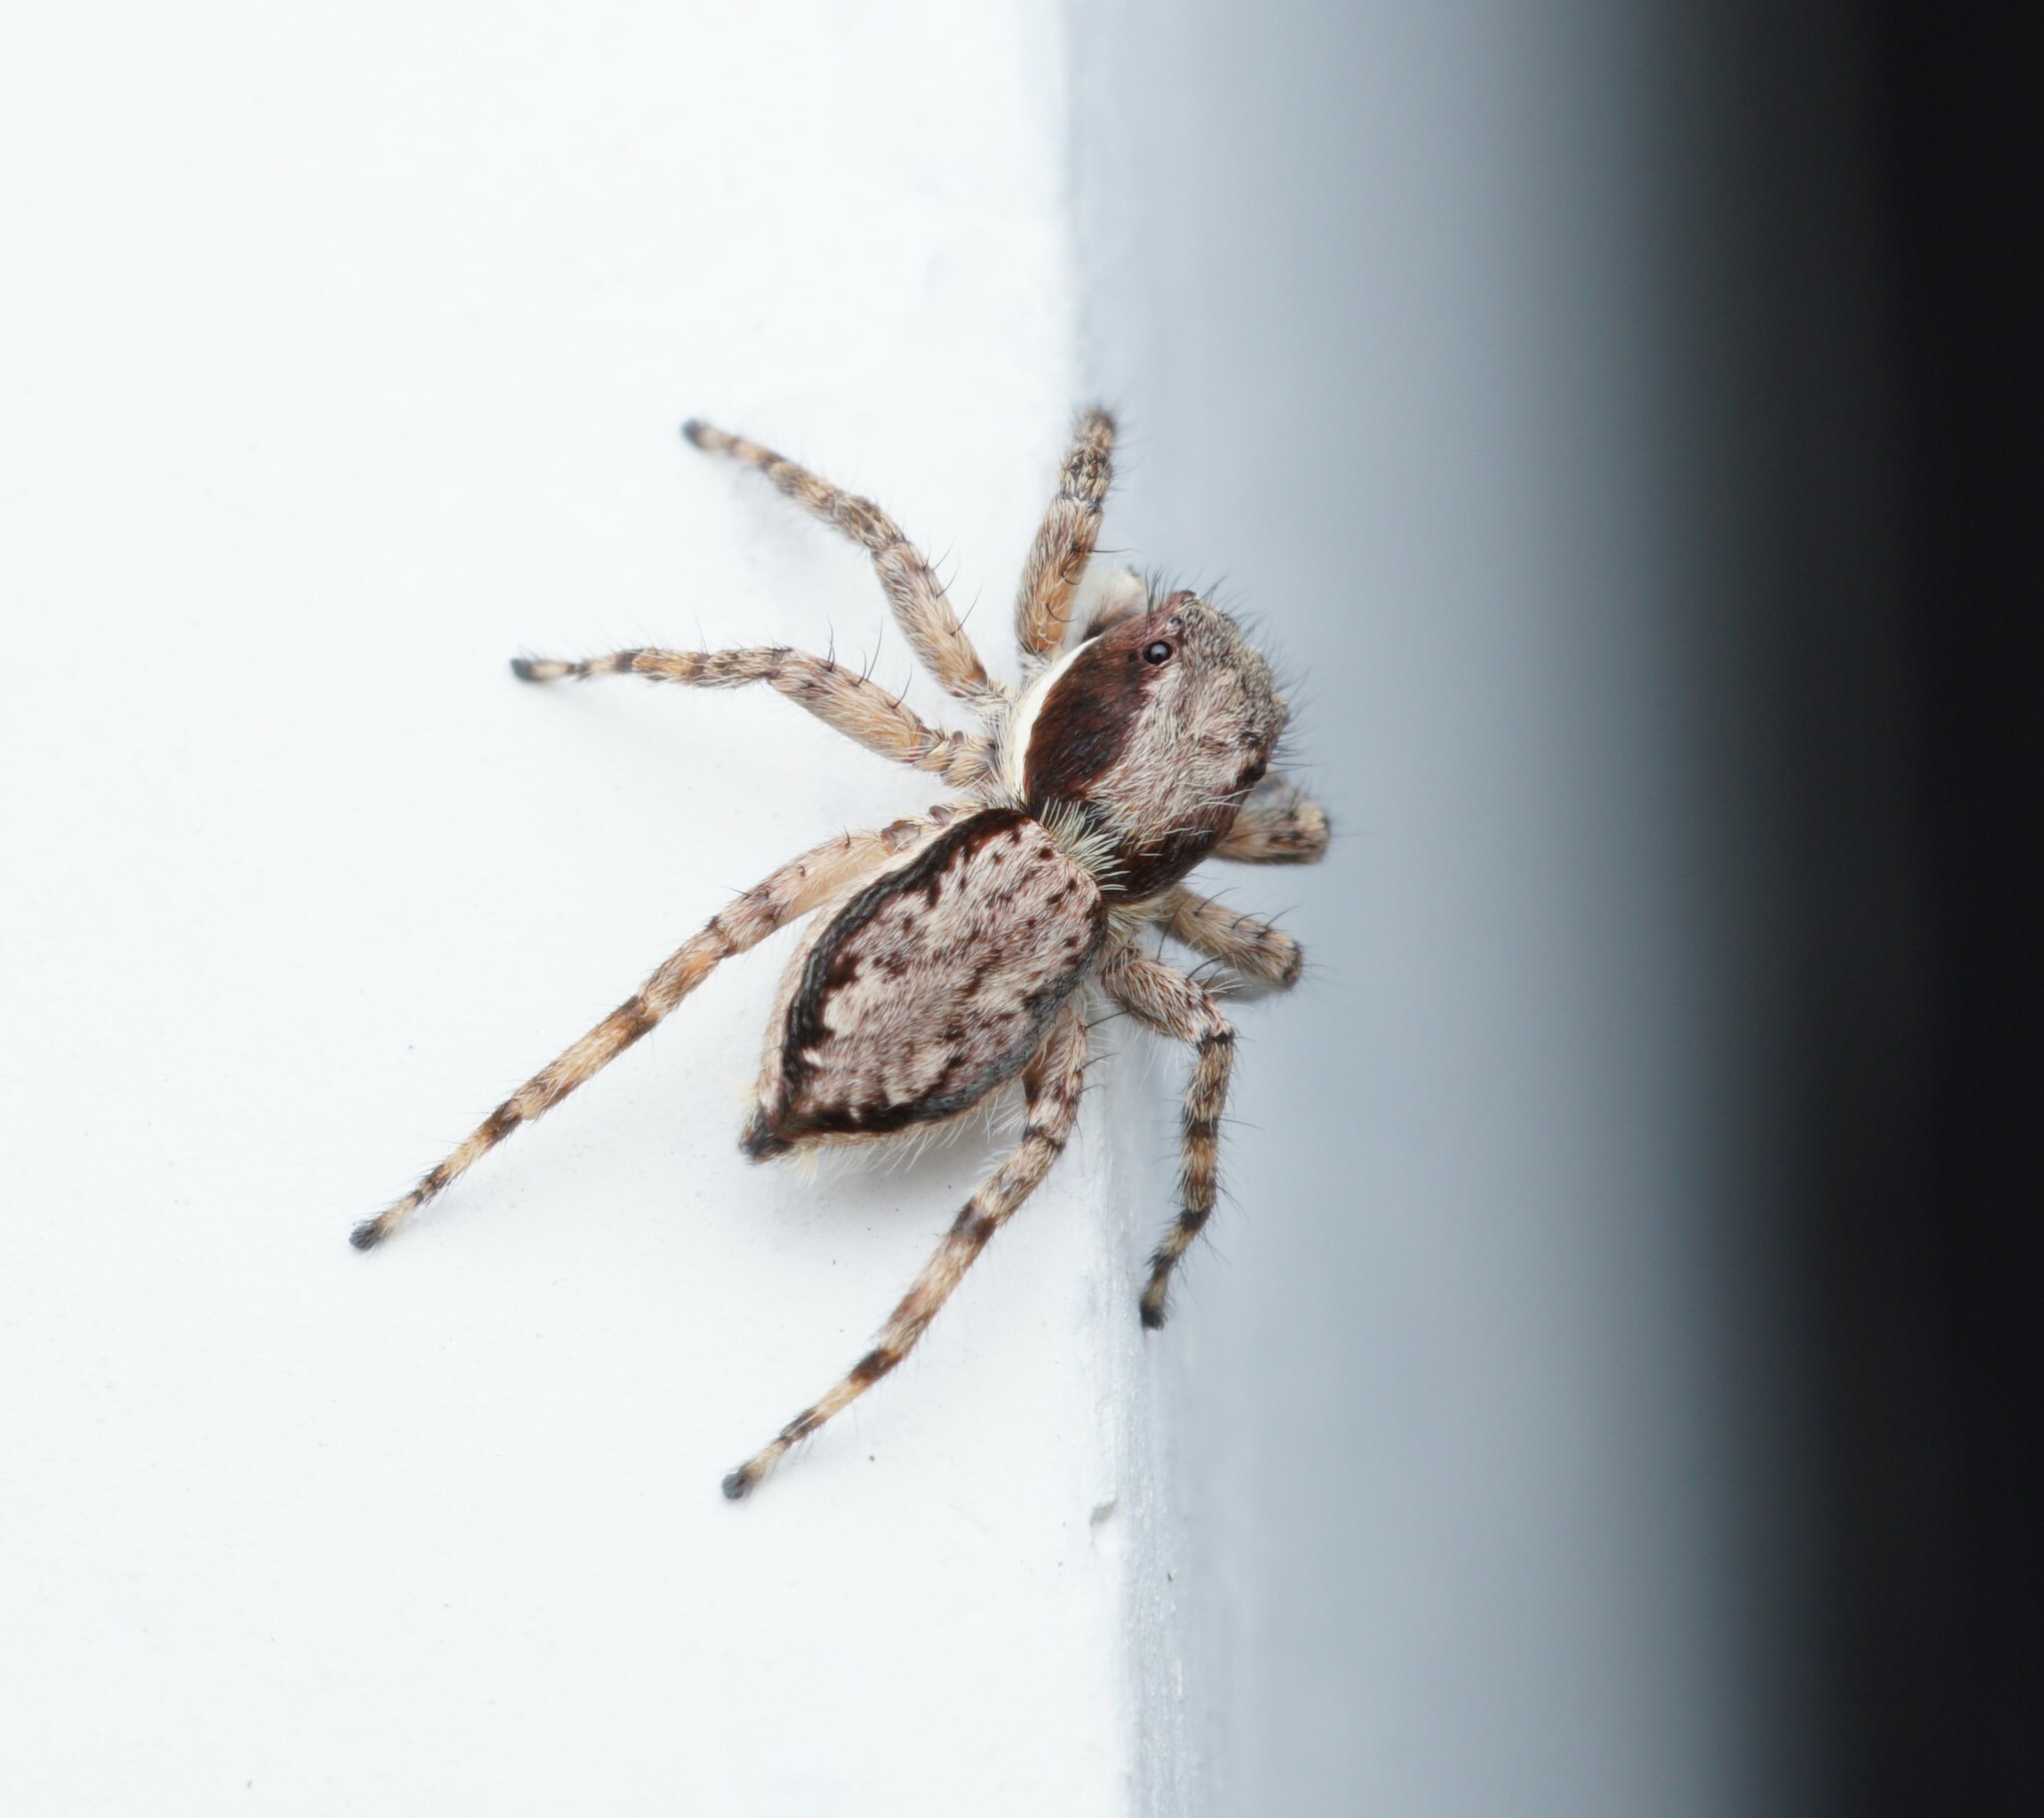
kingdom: Animalia
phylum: Arthropoda
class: Arachnida
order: Araneae
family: Salticidae
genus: Menemerus
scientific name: Menemerus bivittatus
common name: Gray wall jumper
